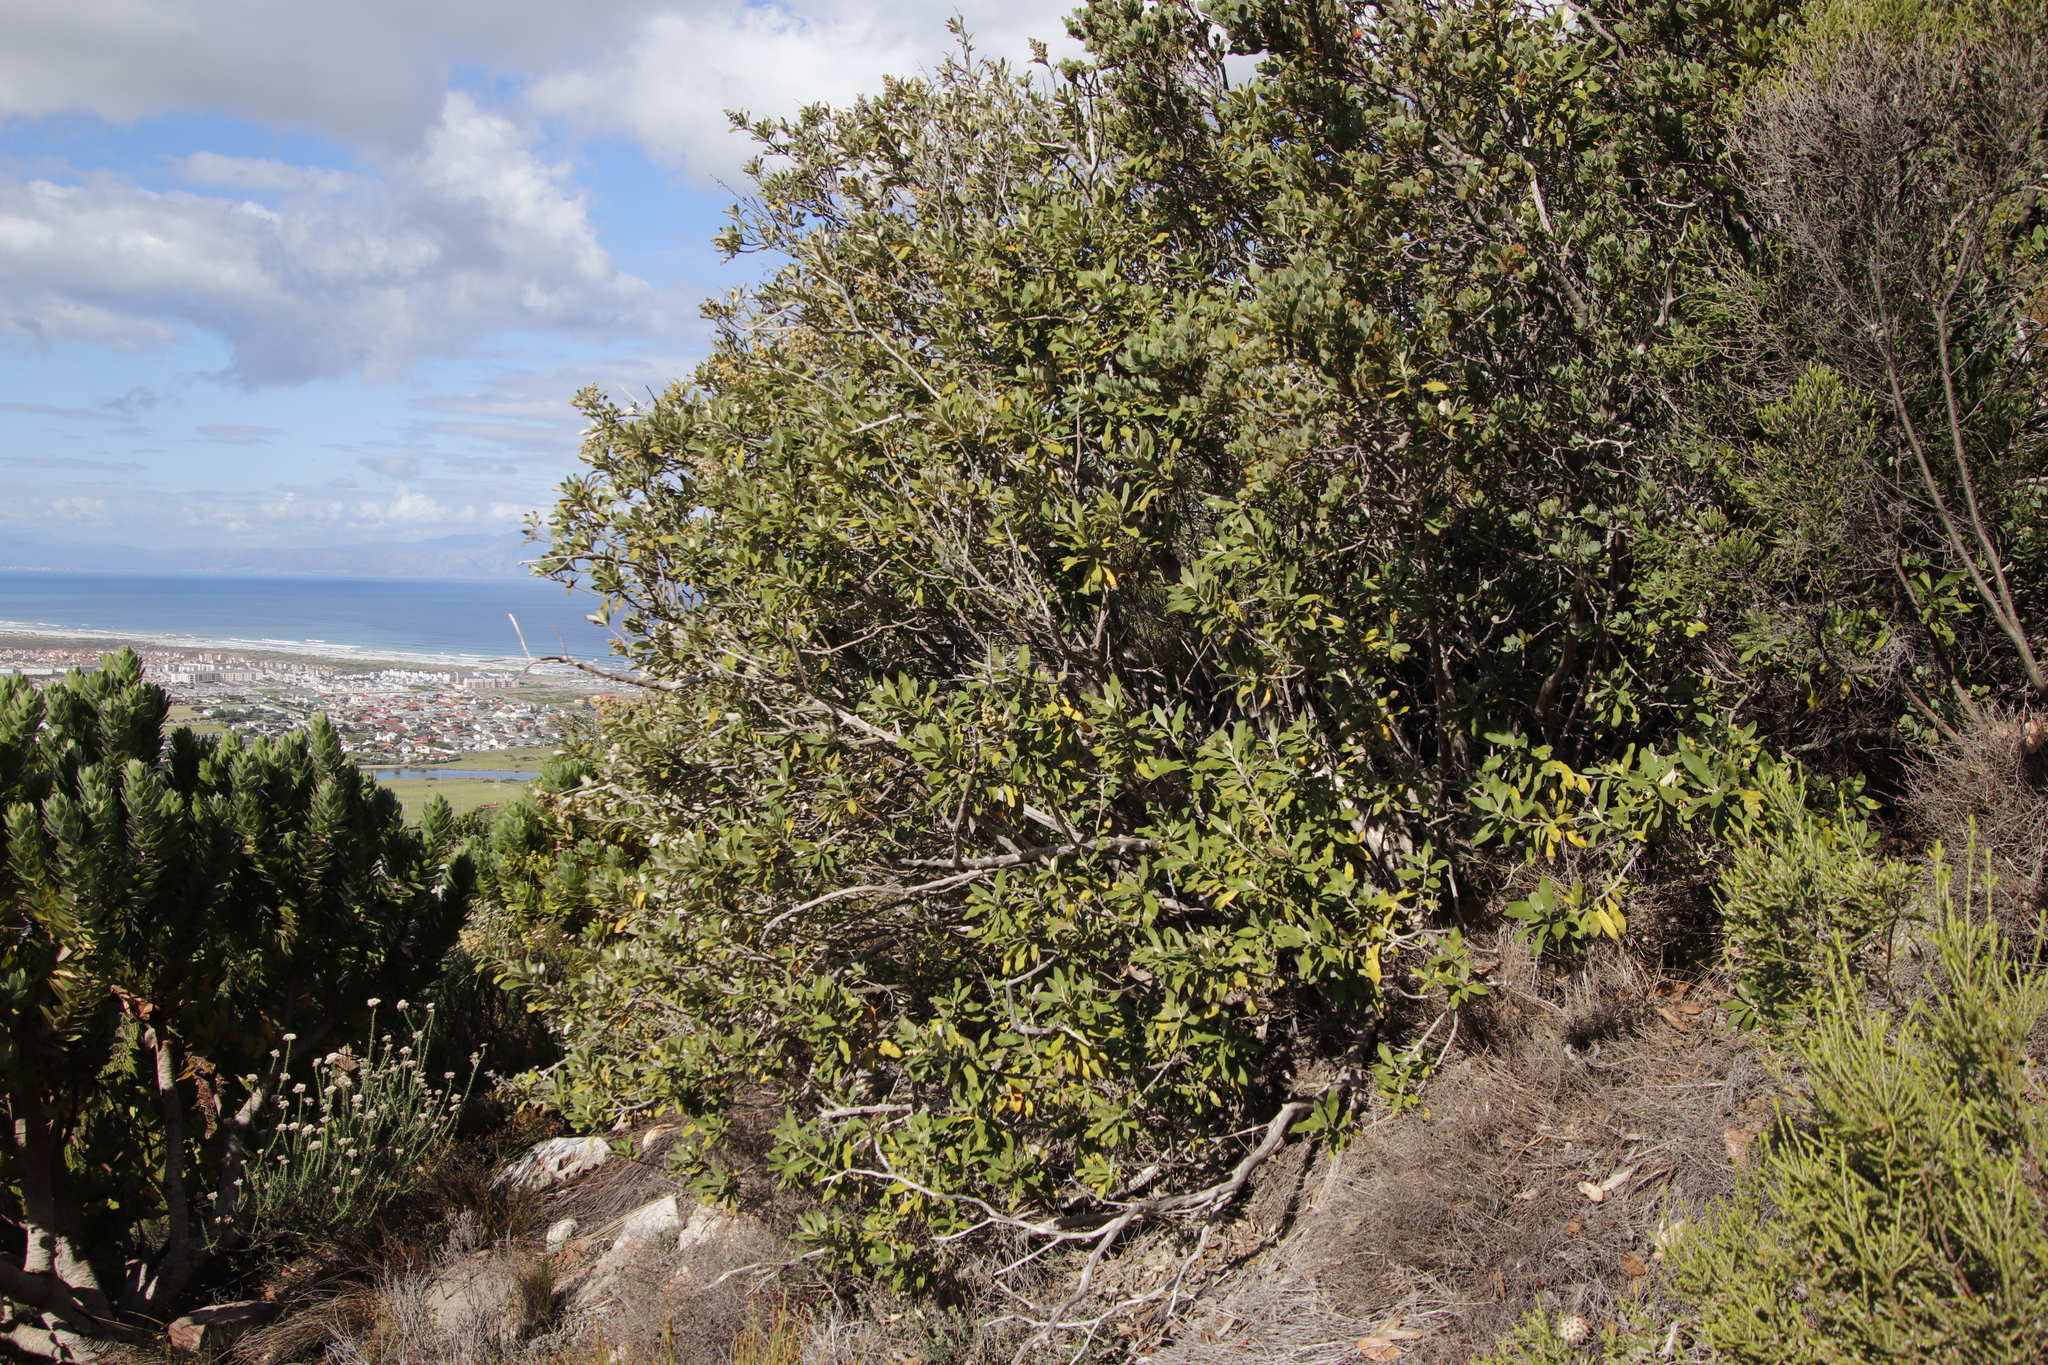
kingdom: Plantae
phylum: Tracheophyta
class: Magnoliopsida
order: Asterales
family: Asteraceae
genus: Tarchonanthus
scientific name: Tarchonanthus littoralis
